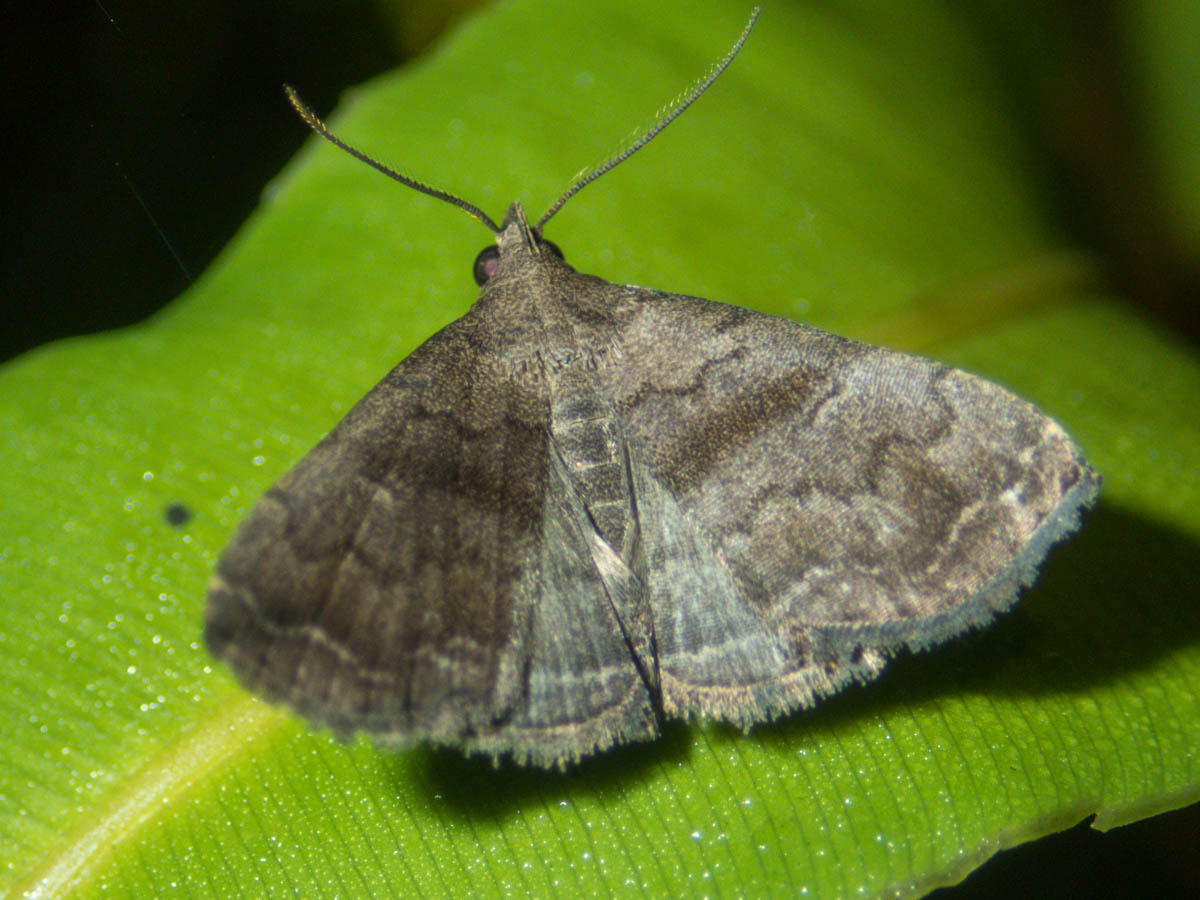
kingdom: Animalia
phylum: Arthropoda
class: Insecta
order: Lepidoptera
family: Erebidae
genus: Polypogon
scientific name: Polypogon Hipoepa fractalis
